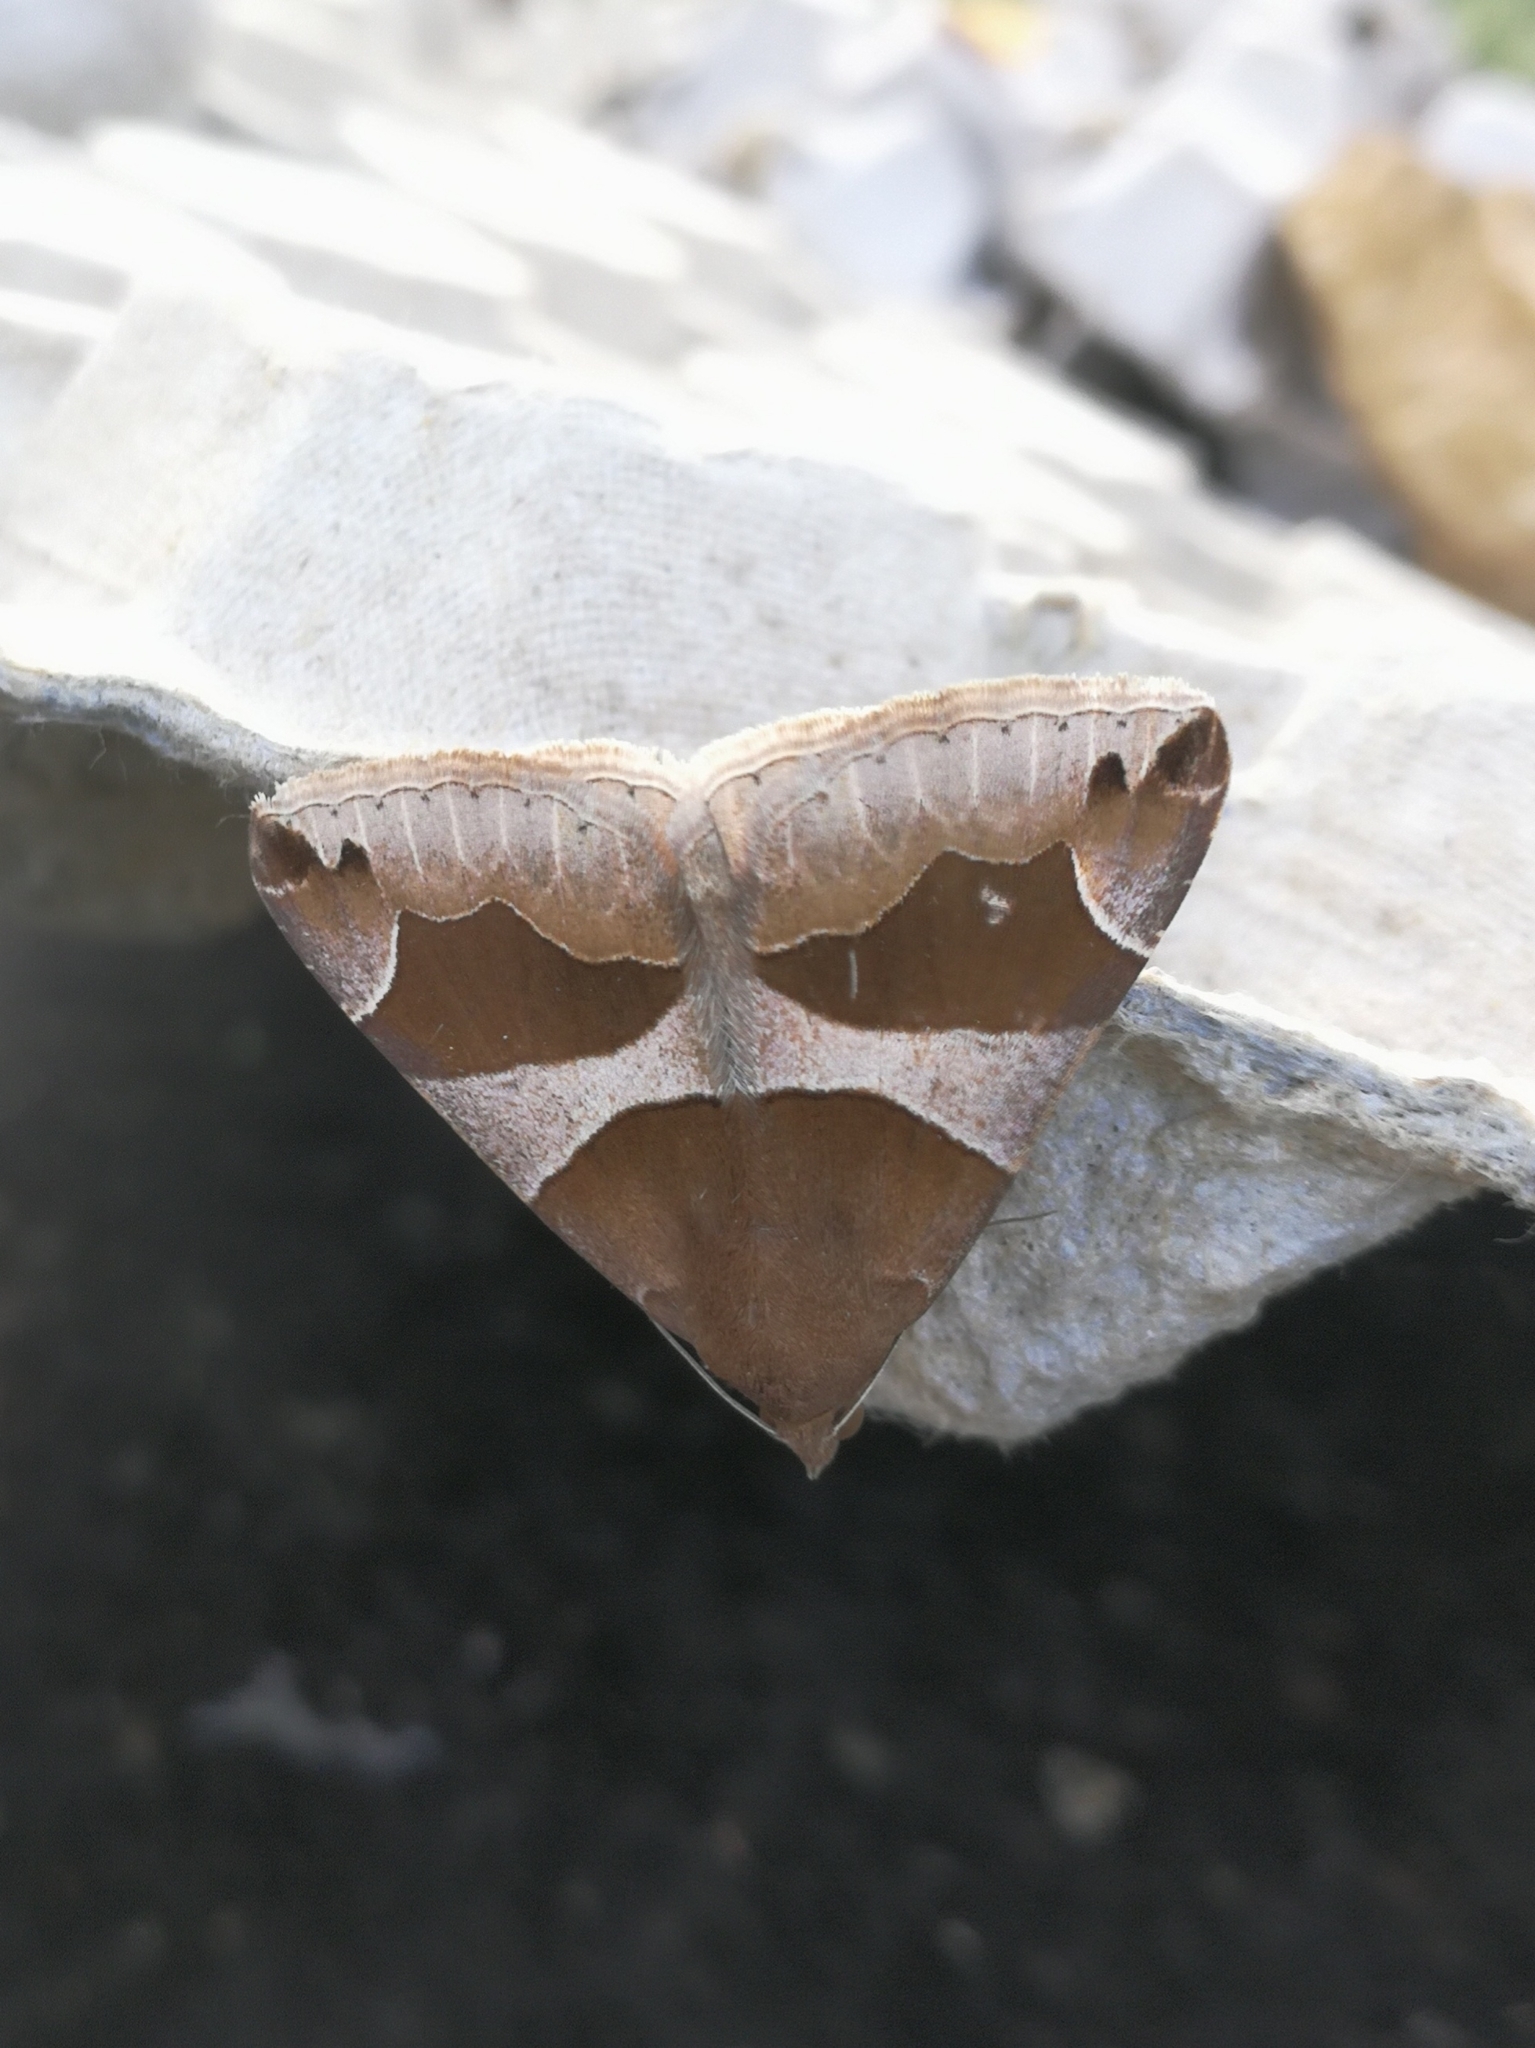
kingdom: Animalia
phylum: Arthropoda
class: Insecta
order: Lepidoptera
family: Erebidae
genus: Dysgonia
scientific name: Dysgonia algira
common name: Passenger
